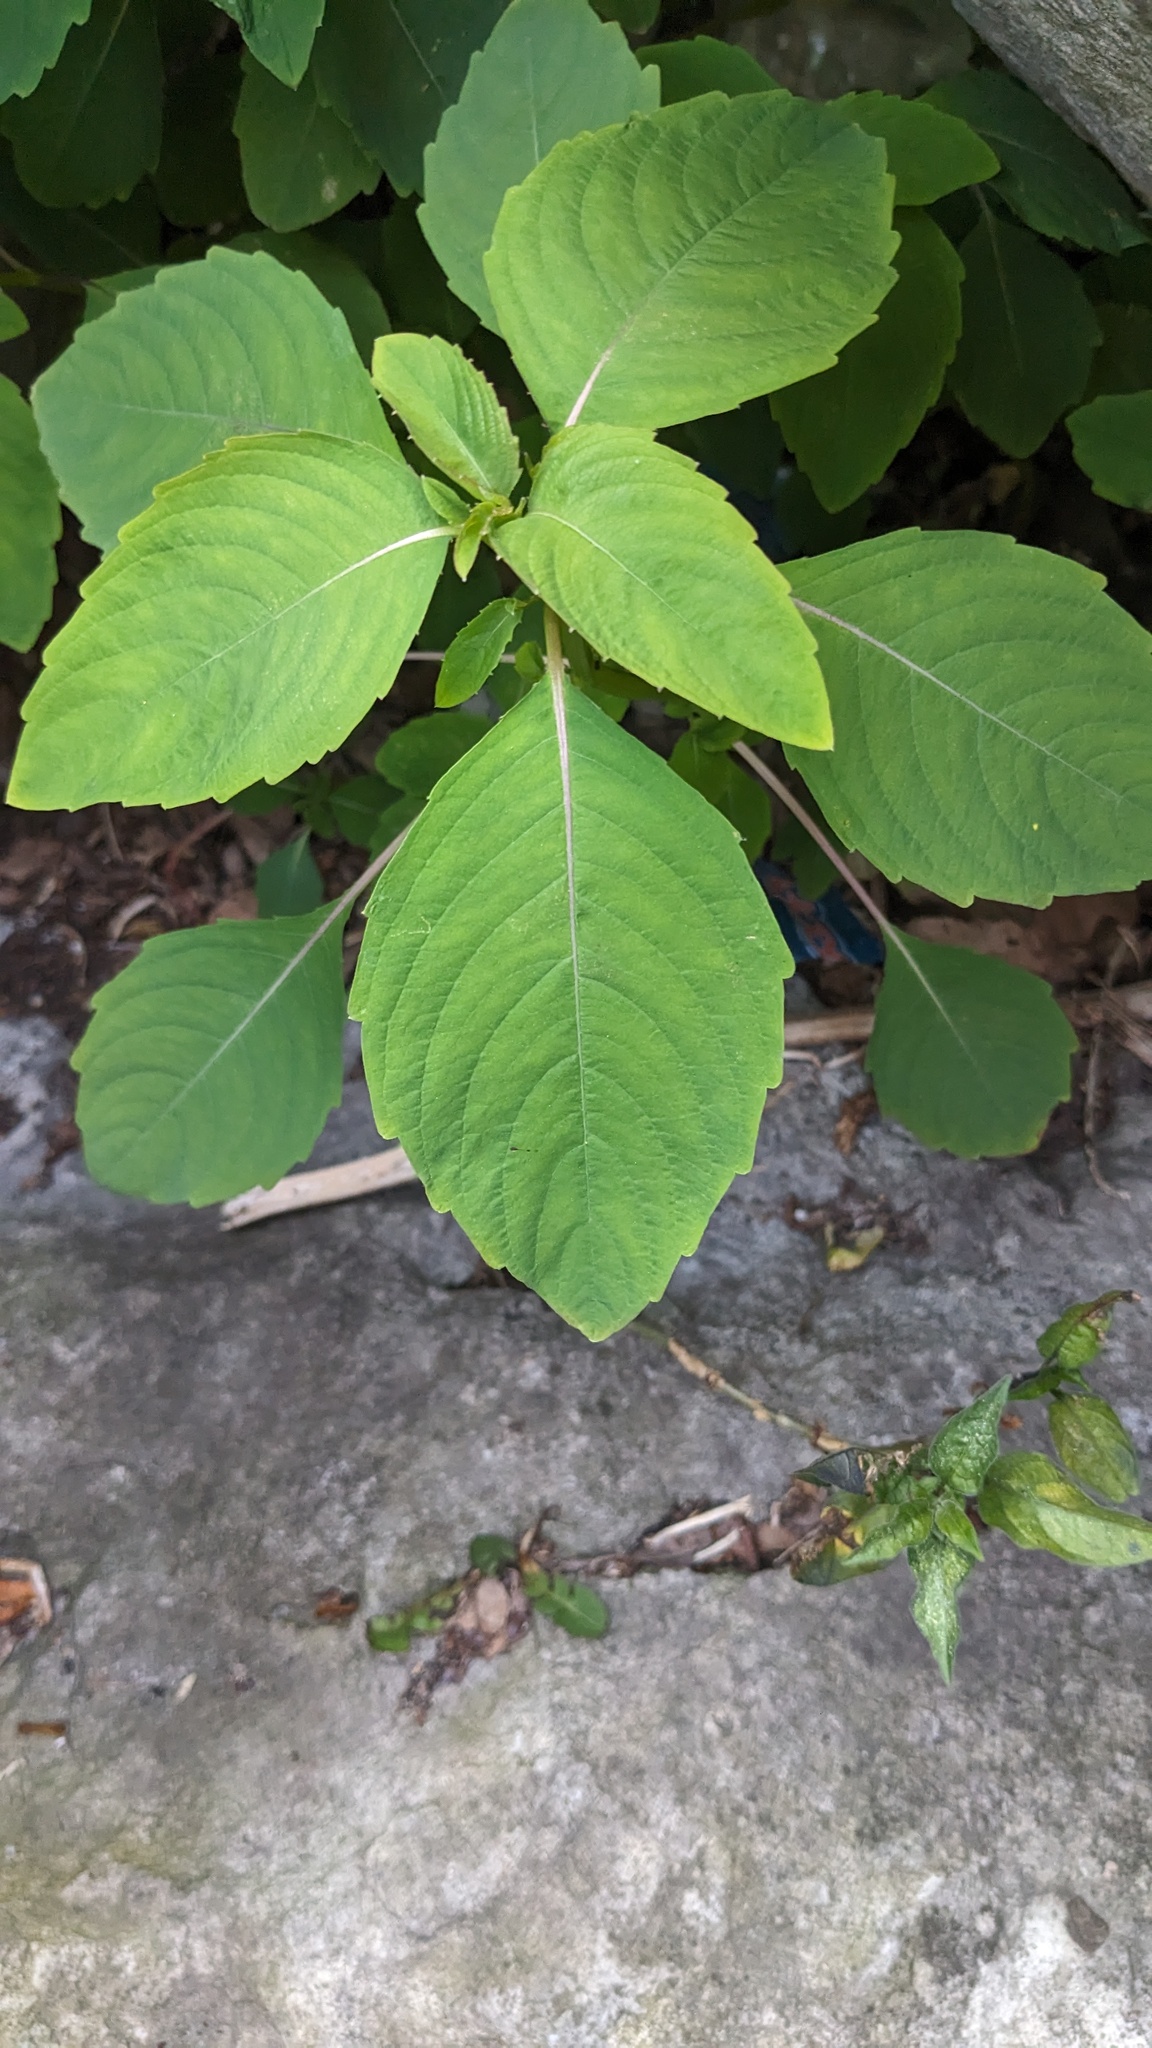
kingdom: Plantae
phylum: Tracheophyta
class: Magnoliopsida
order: Ericales
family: Balsaminaceae
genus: Impatiens
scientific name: Impatiens capensis
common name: Orange balsam
